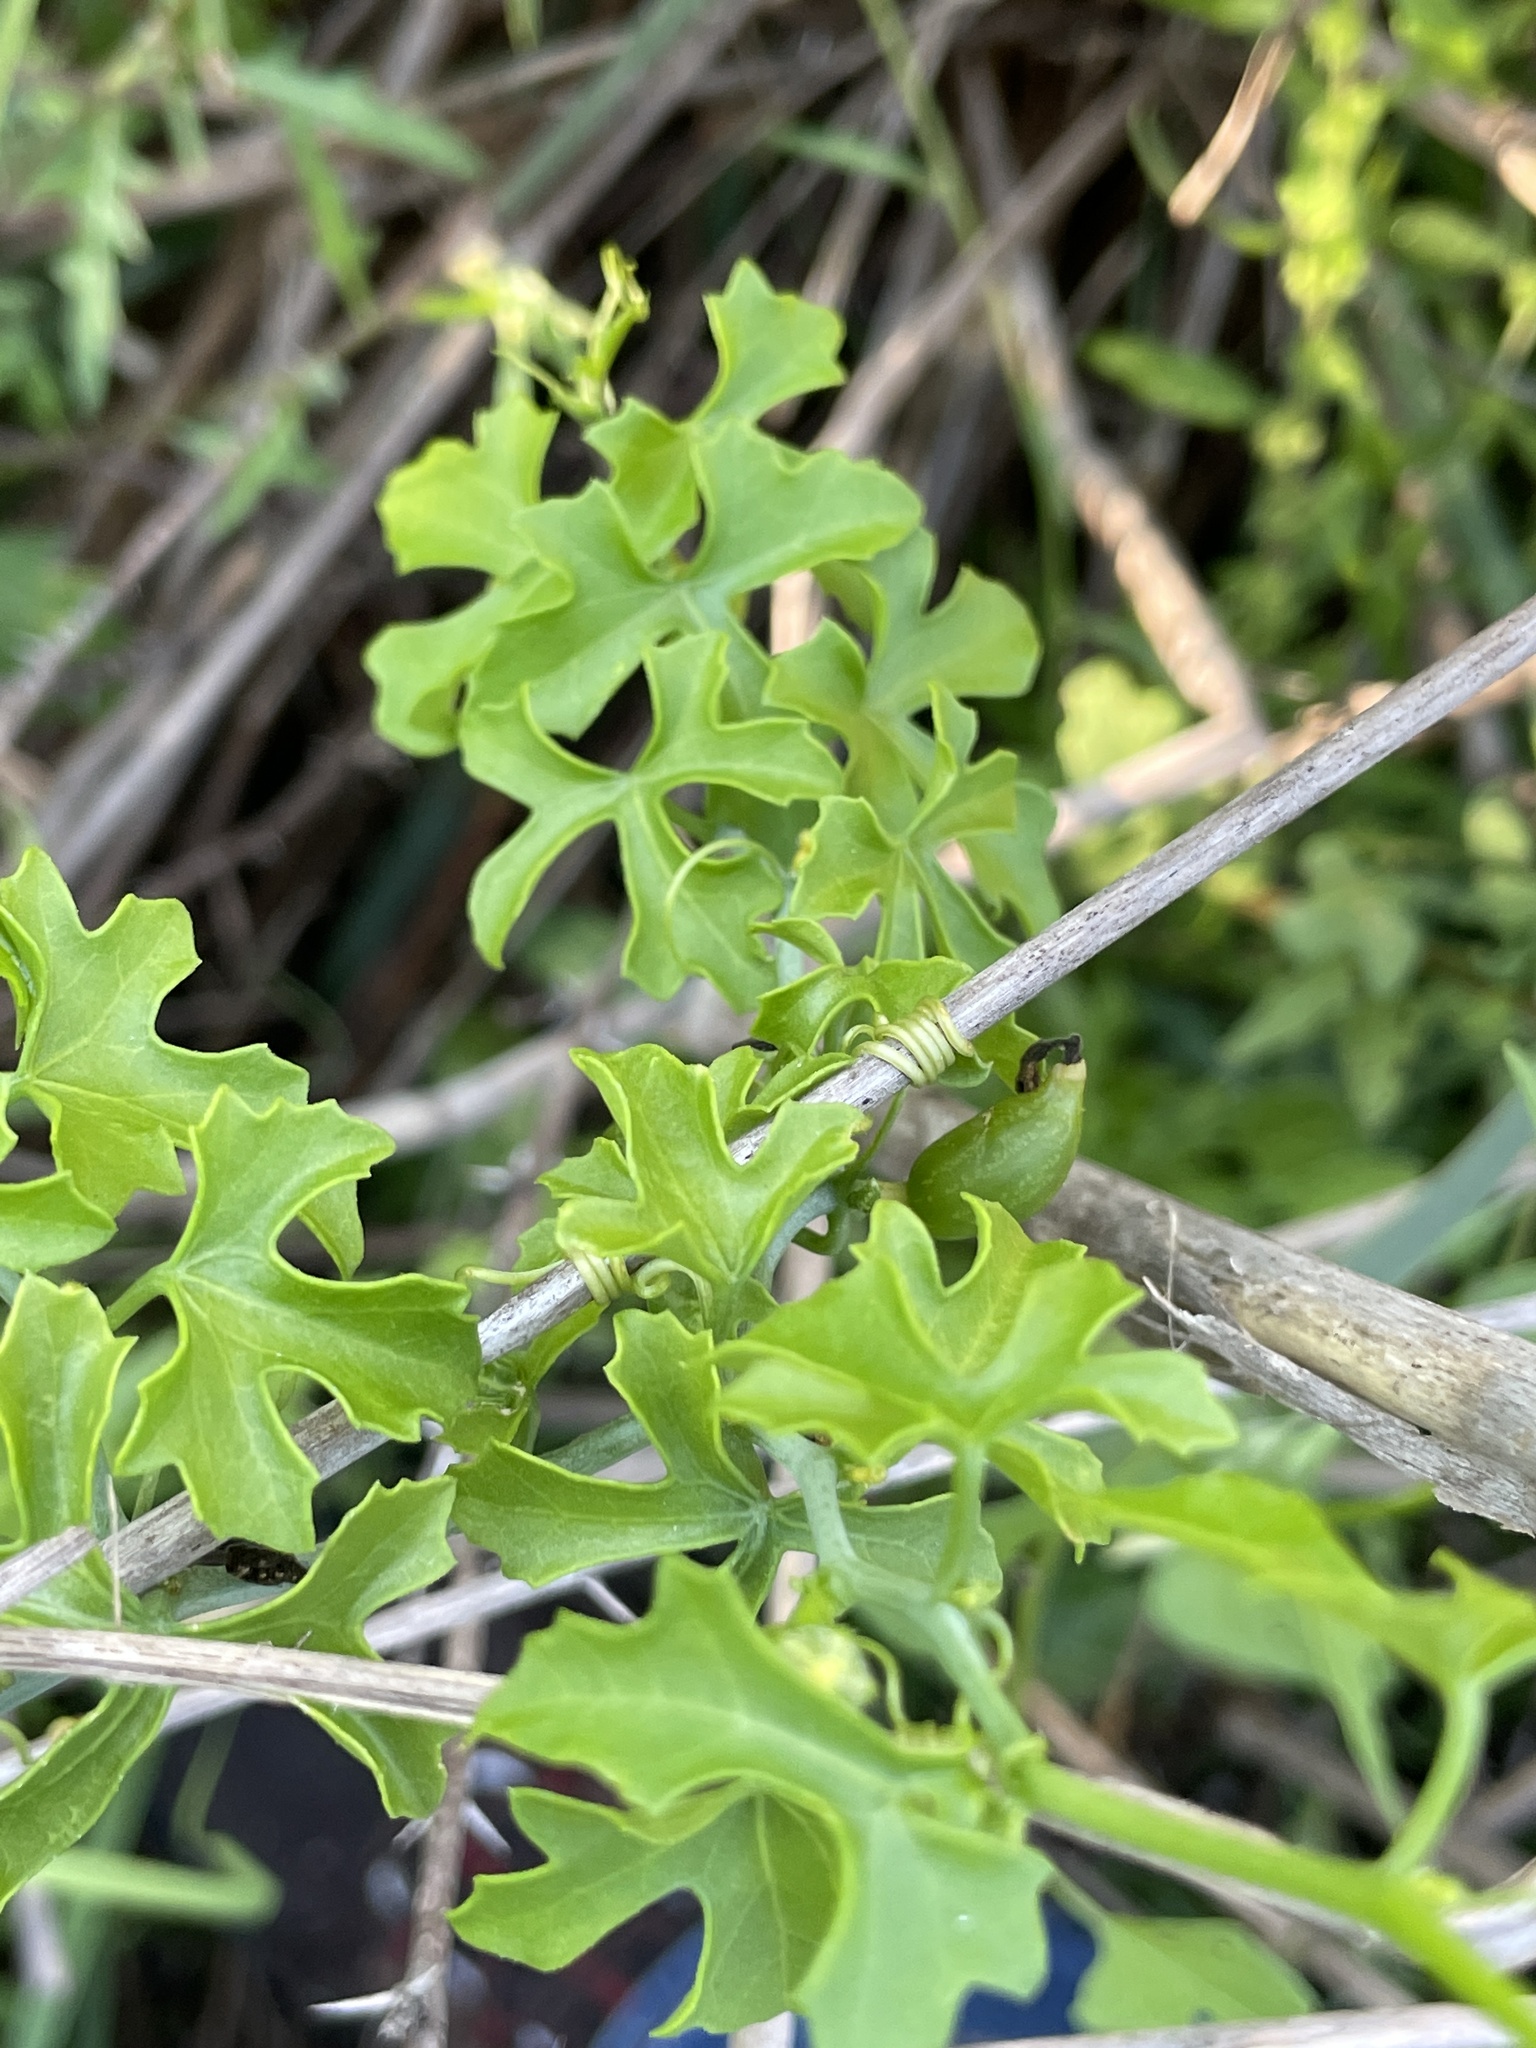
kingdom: Plantae
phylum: Tracheophyta
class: Magnoliopsida
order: Cucurbitales
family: Cucurbitaceae
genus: Ibervillea
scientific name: Ibervillea lindheimeri
